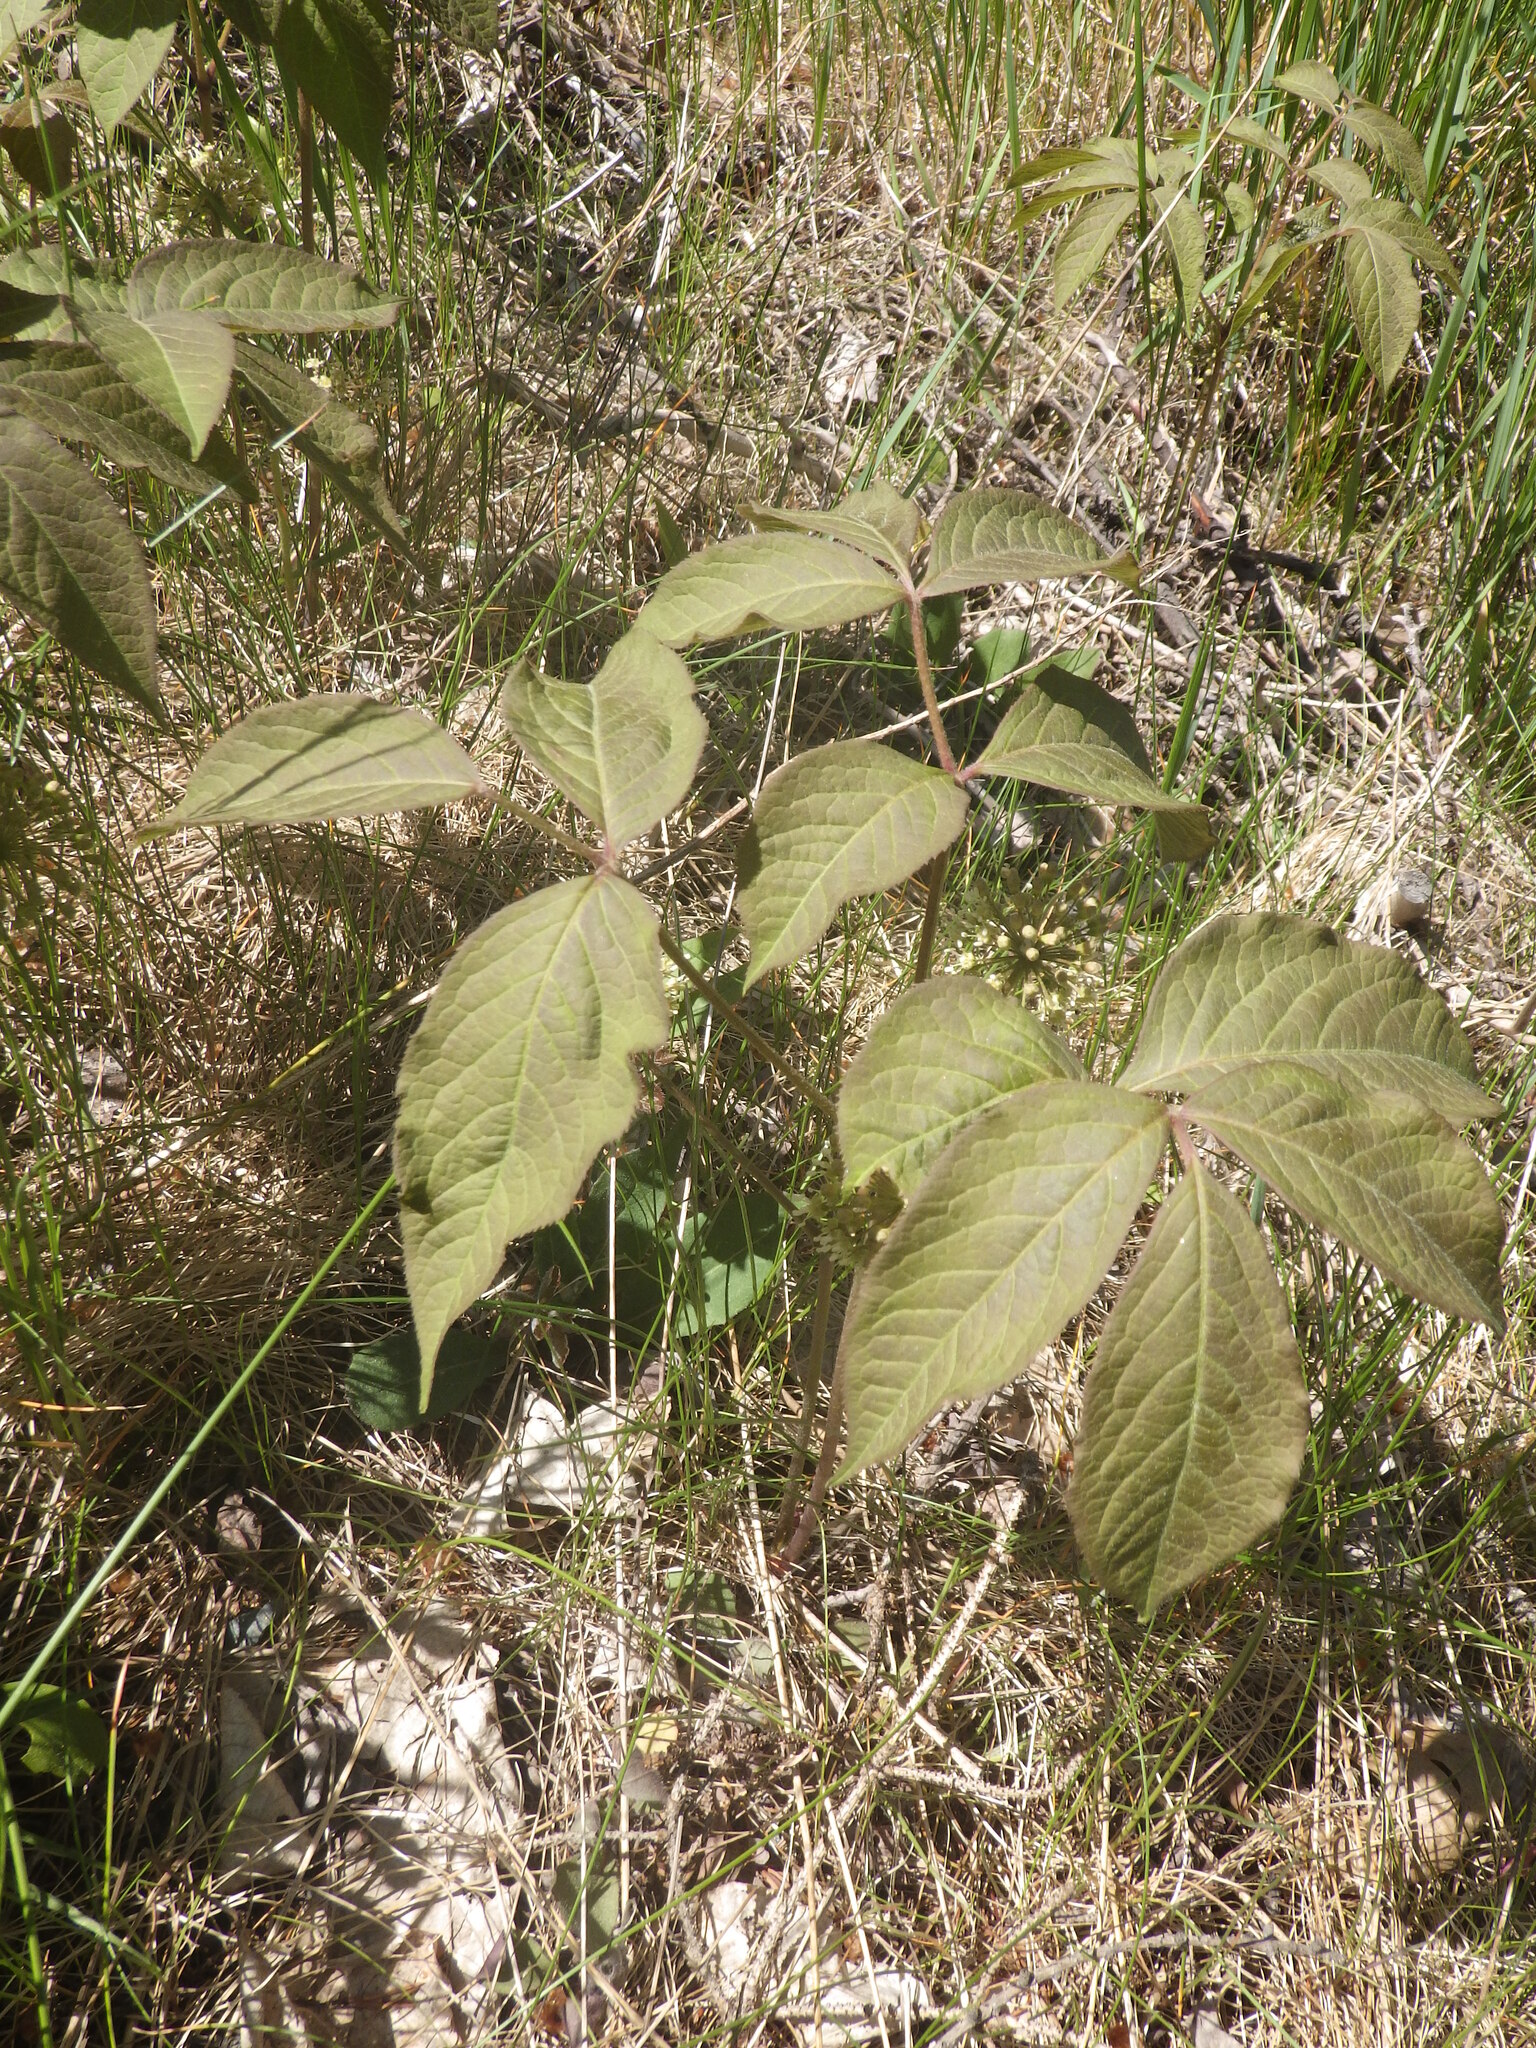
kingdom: Plantae
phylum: Tracheophyta
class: Magnoliopsida
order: Apiales
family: Araliaceae
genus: Aralia
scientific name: Aralia nudicaulis
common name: Wild sarsaparilla
